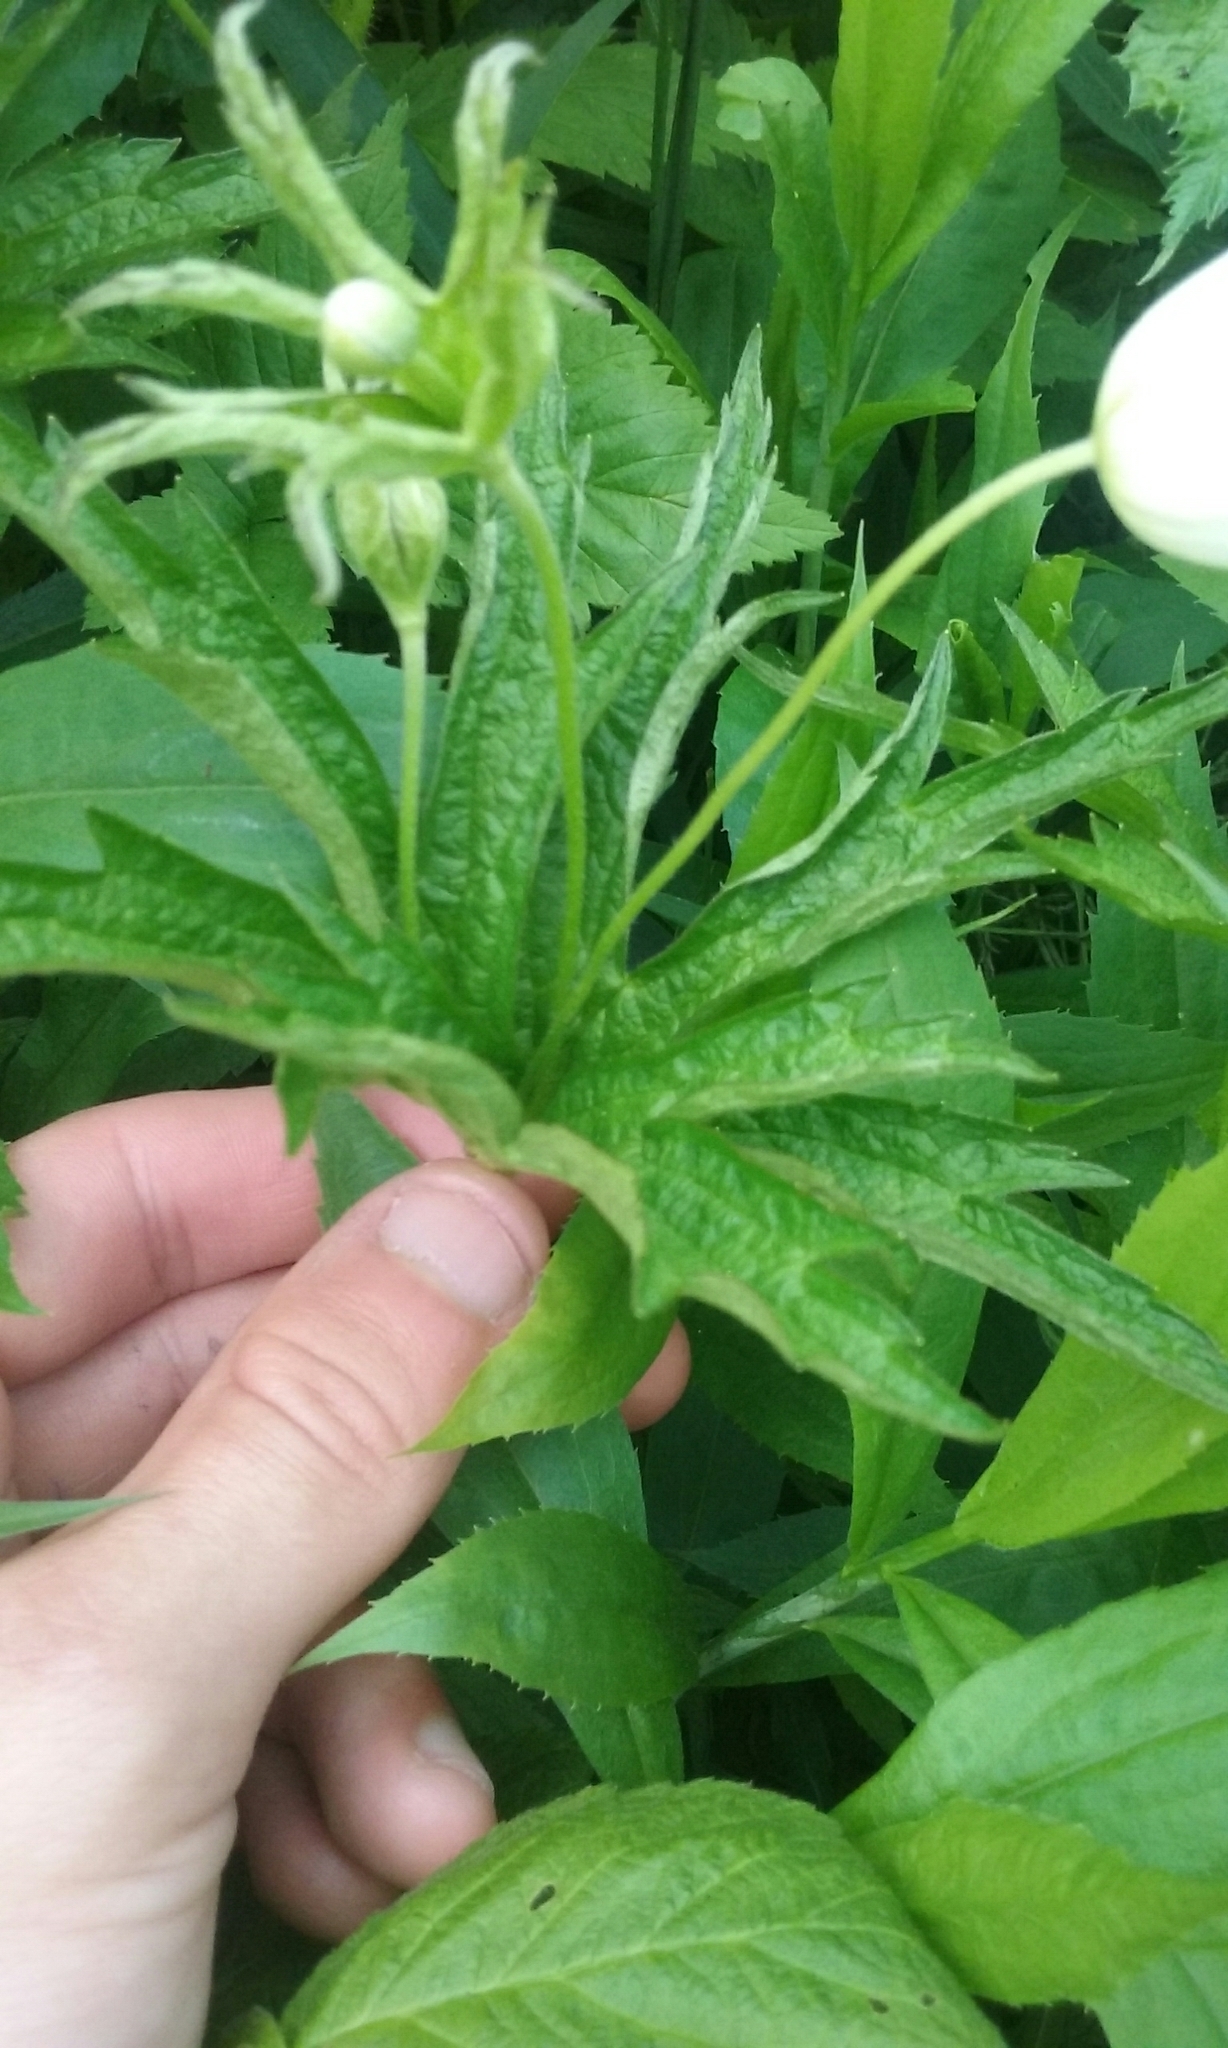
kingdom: Plantae
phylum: Tracheophyta
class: Magnoliopsida
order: Ranunculales
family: Ranunculaceae
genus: Anemonastrum
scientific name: Anemonastrum canadense
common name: Canada anemone
